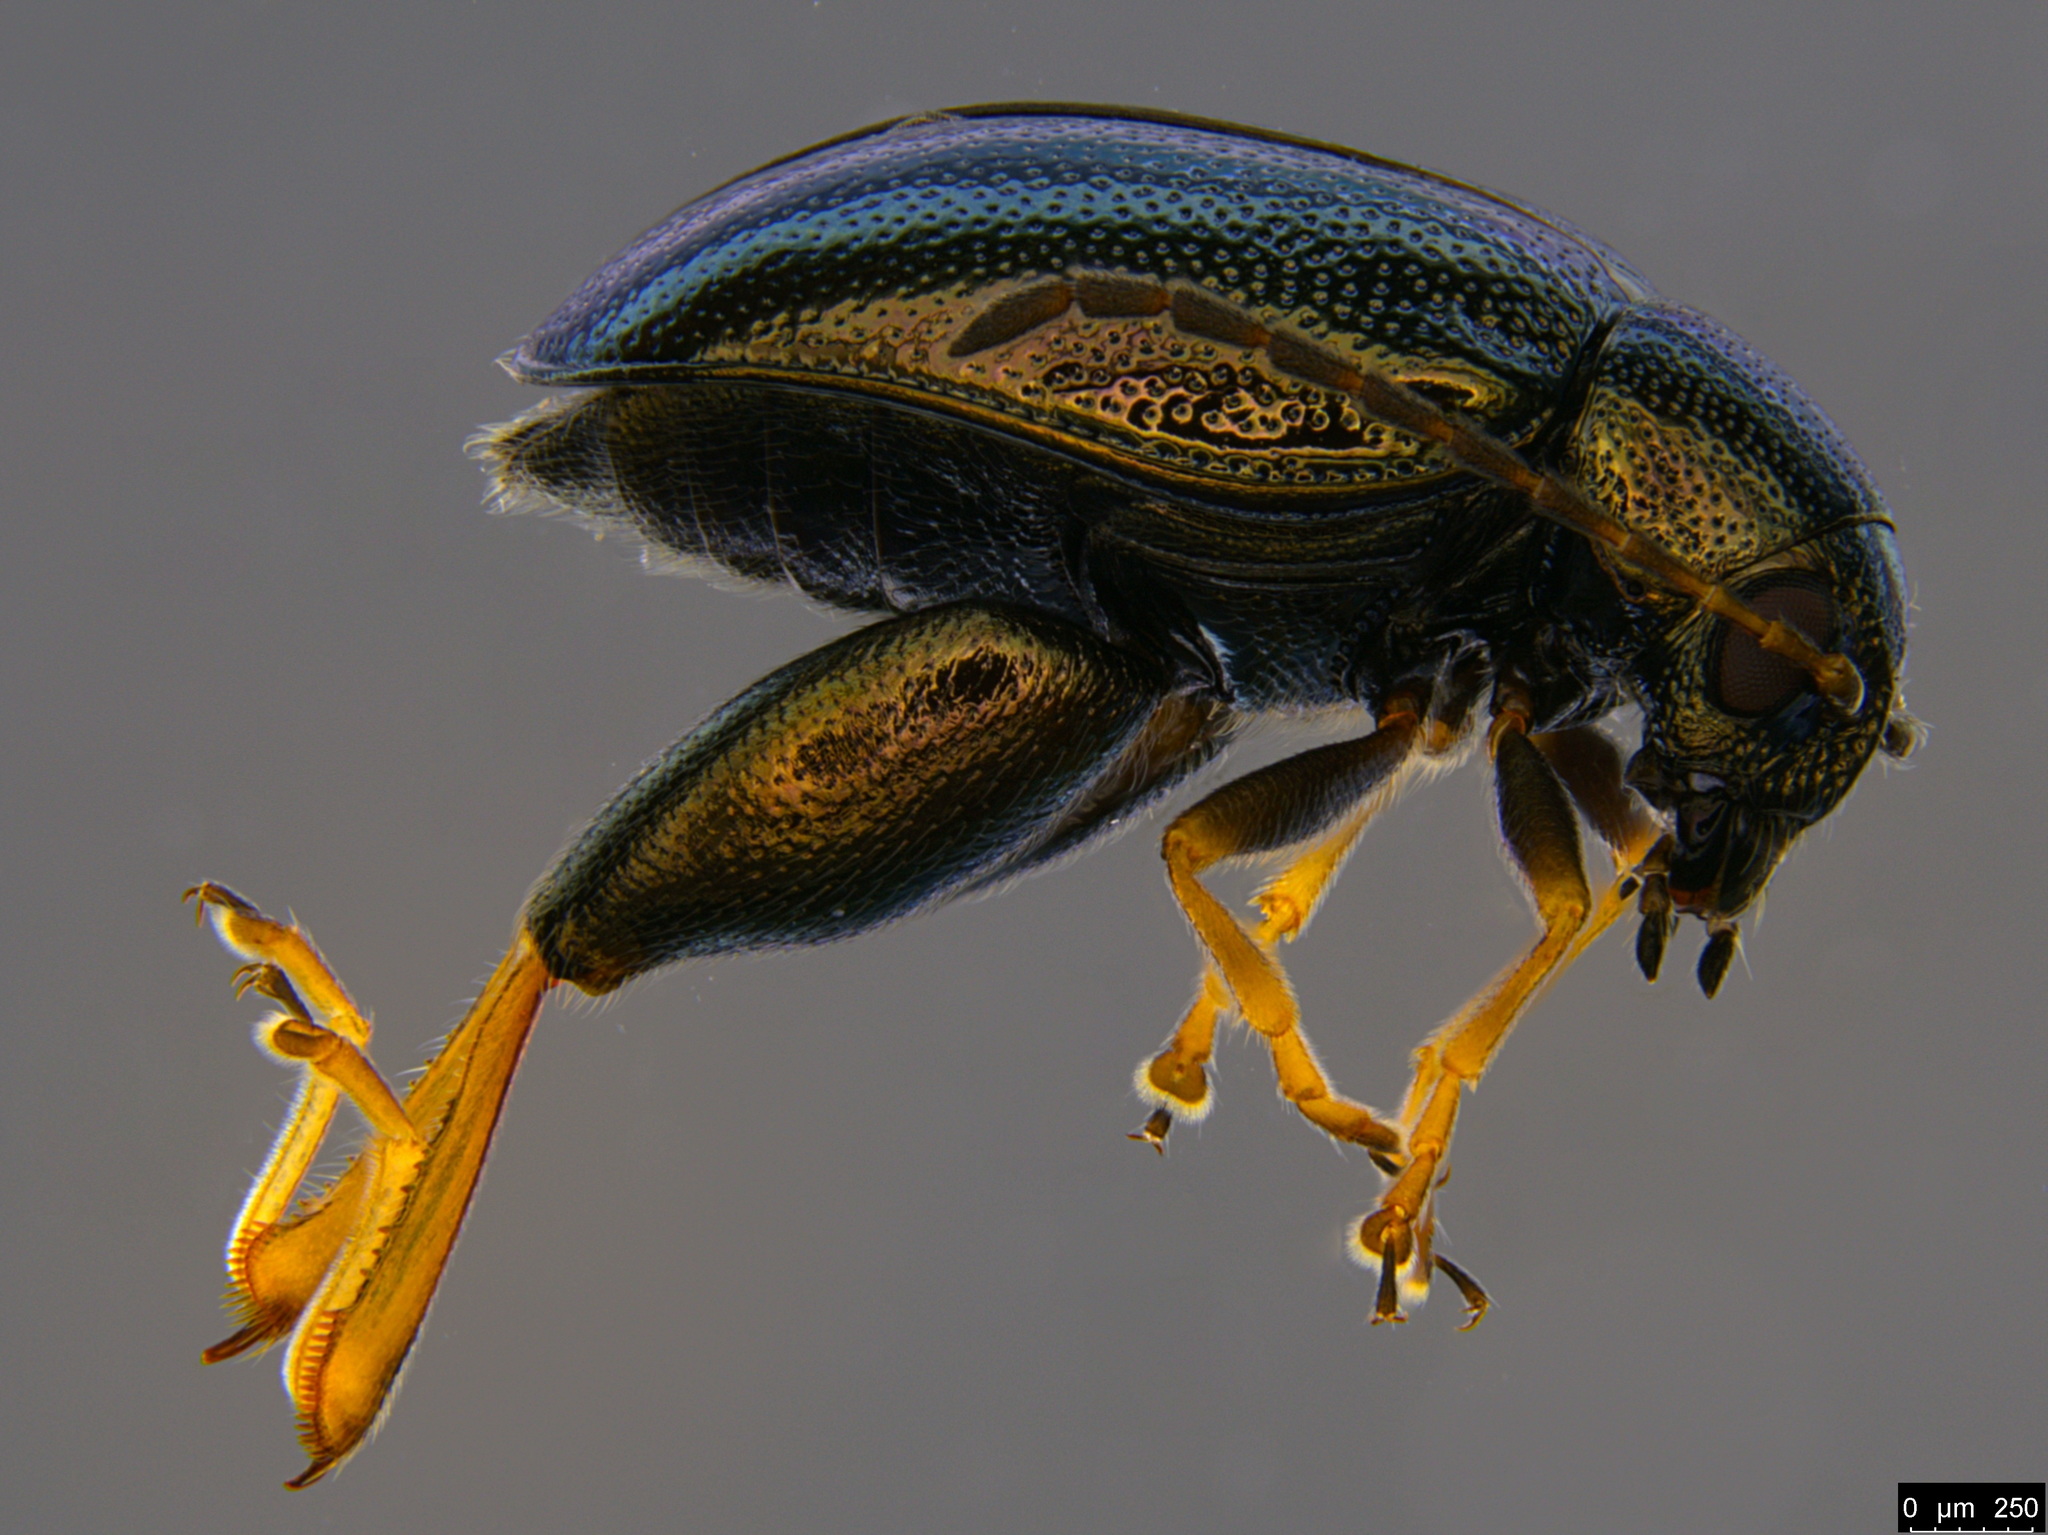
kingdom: Animalia
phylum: Arthropoda
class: Insecta
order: Coleoptera
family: Chrysomelidae
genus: Longitarsus
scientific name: Longitarsus echii
